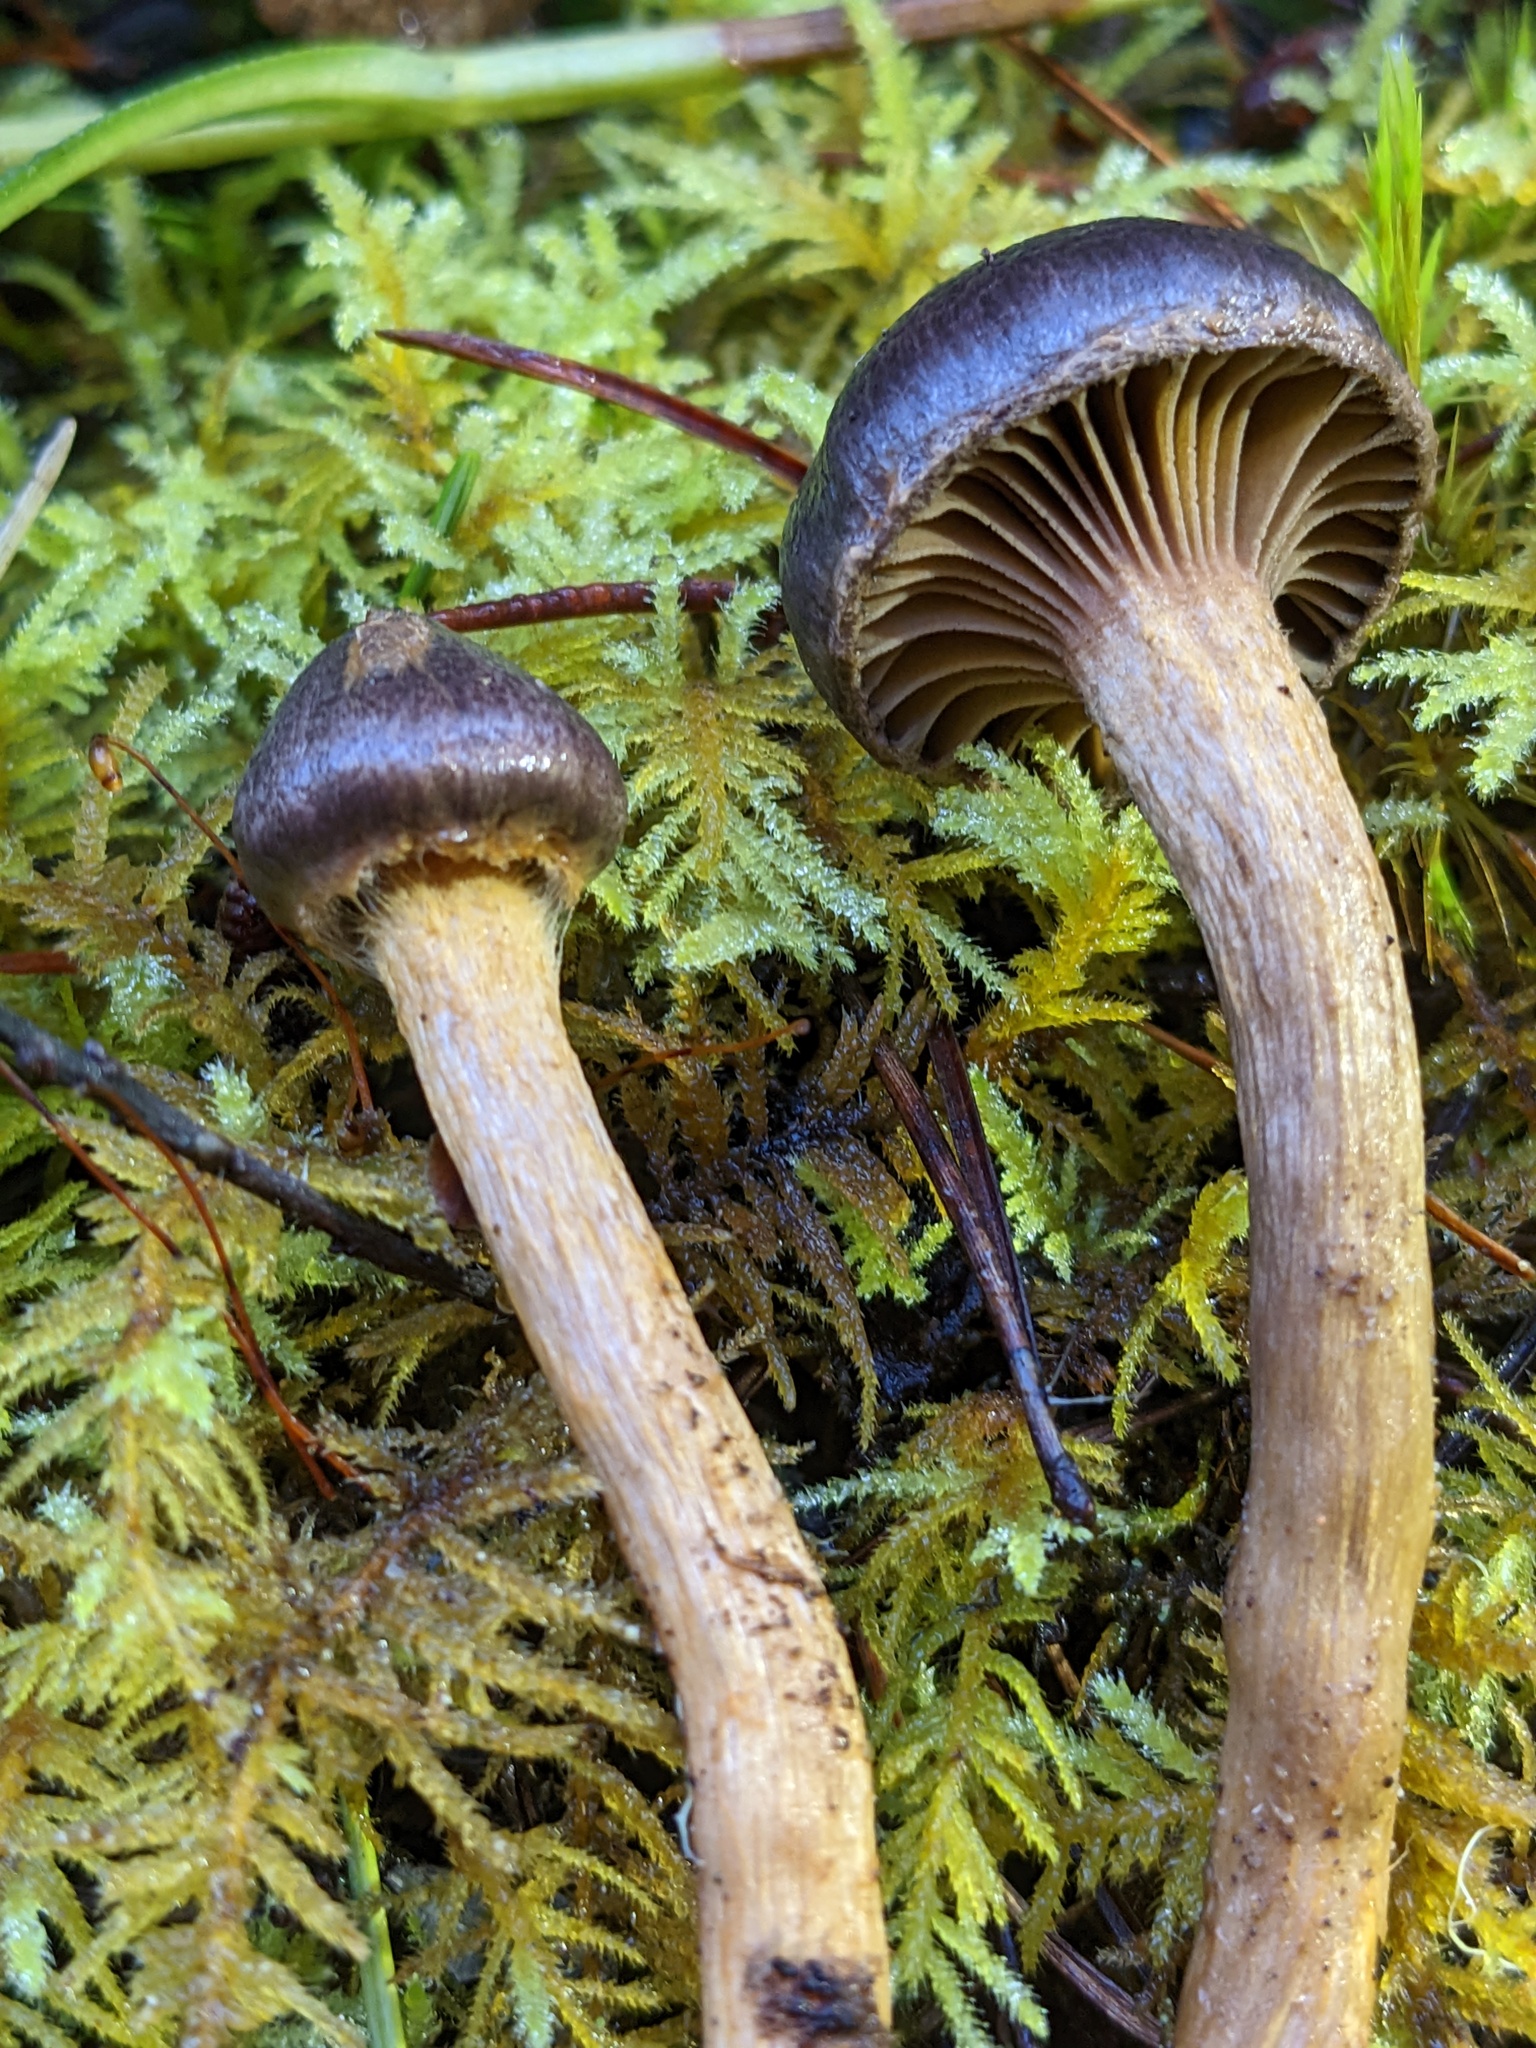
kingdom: Fungi
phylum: Basidiomycota
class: Agaricomycetes
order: Boletales
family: Gomphidiaceae
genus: Chroogomphus
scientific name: Chroogomphus vinicolor
